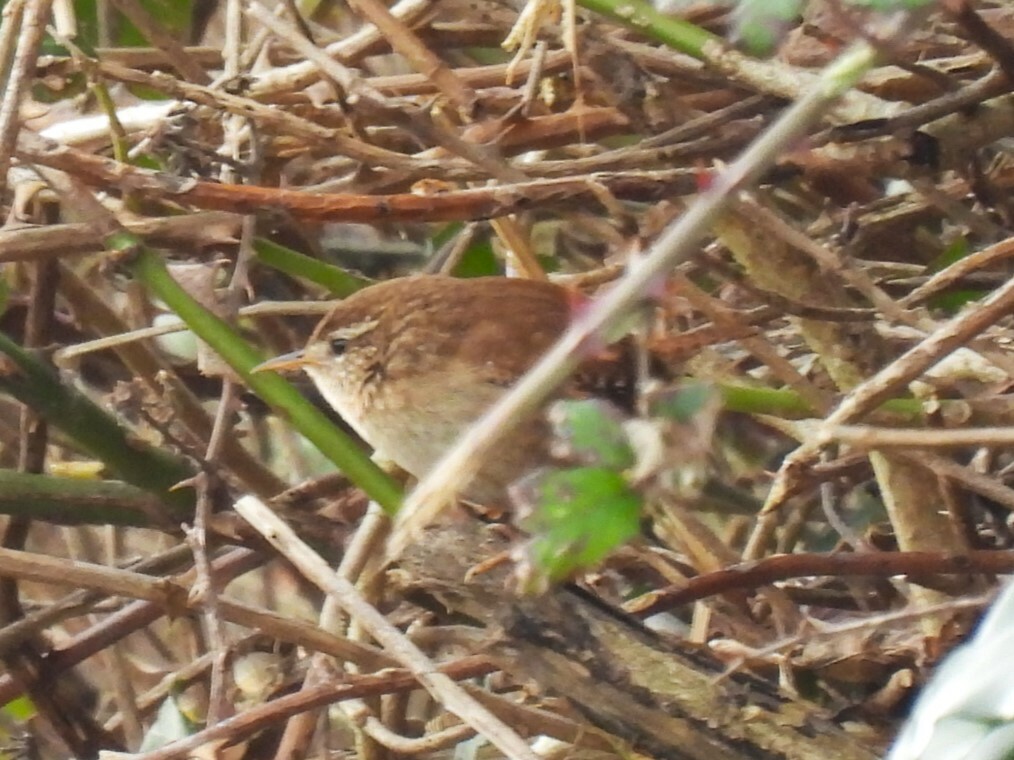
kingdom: Animalia
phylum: Chordata
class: Aves
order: Passeriformes
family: Troglodytidae
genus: Troglodytes
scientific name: Troglodytes troglodytes
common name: Eurasian wren
